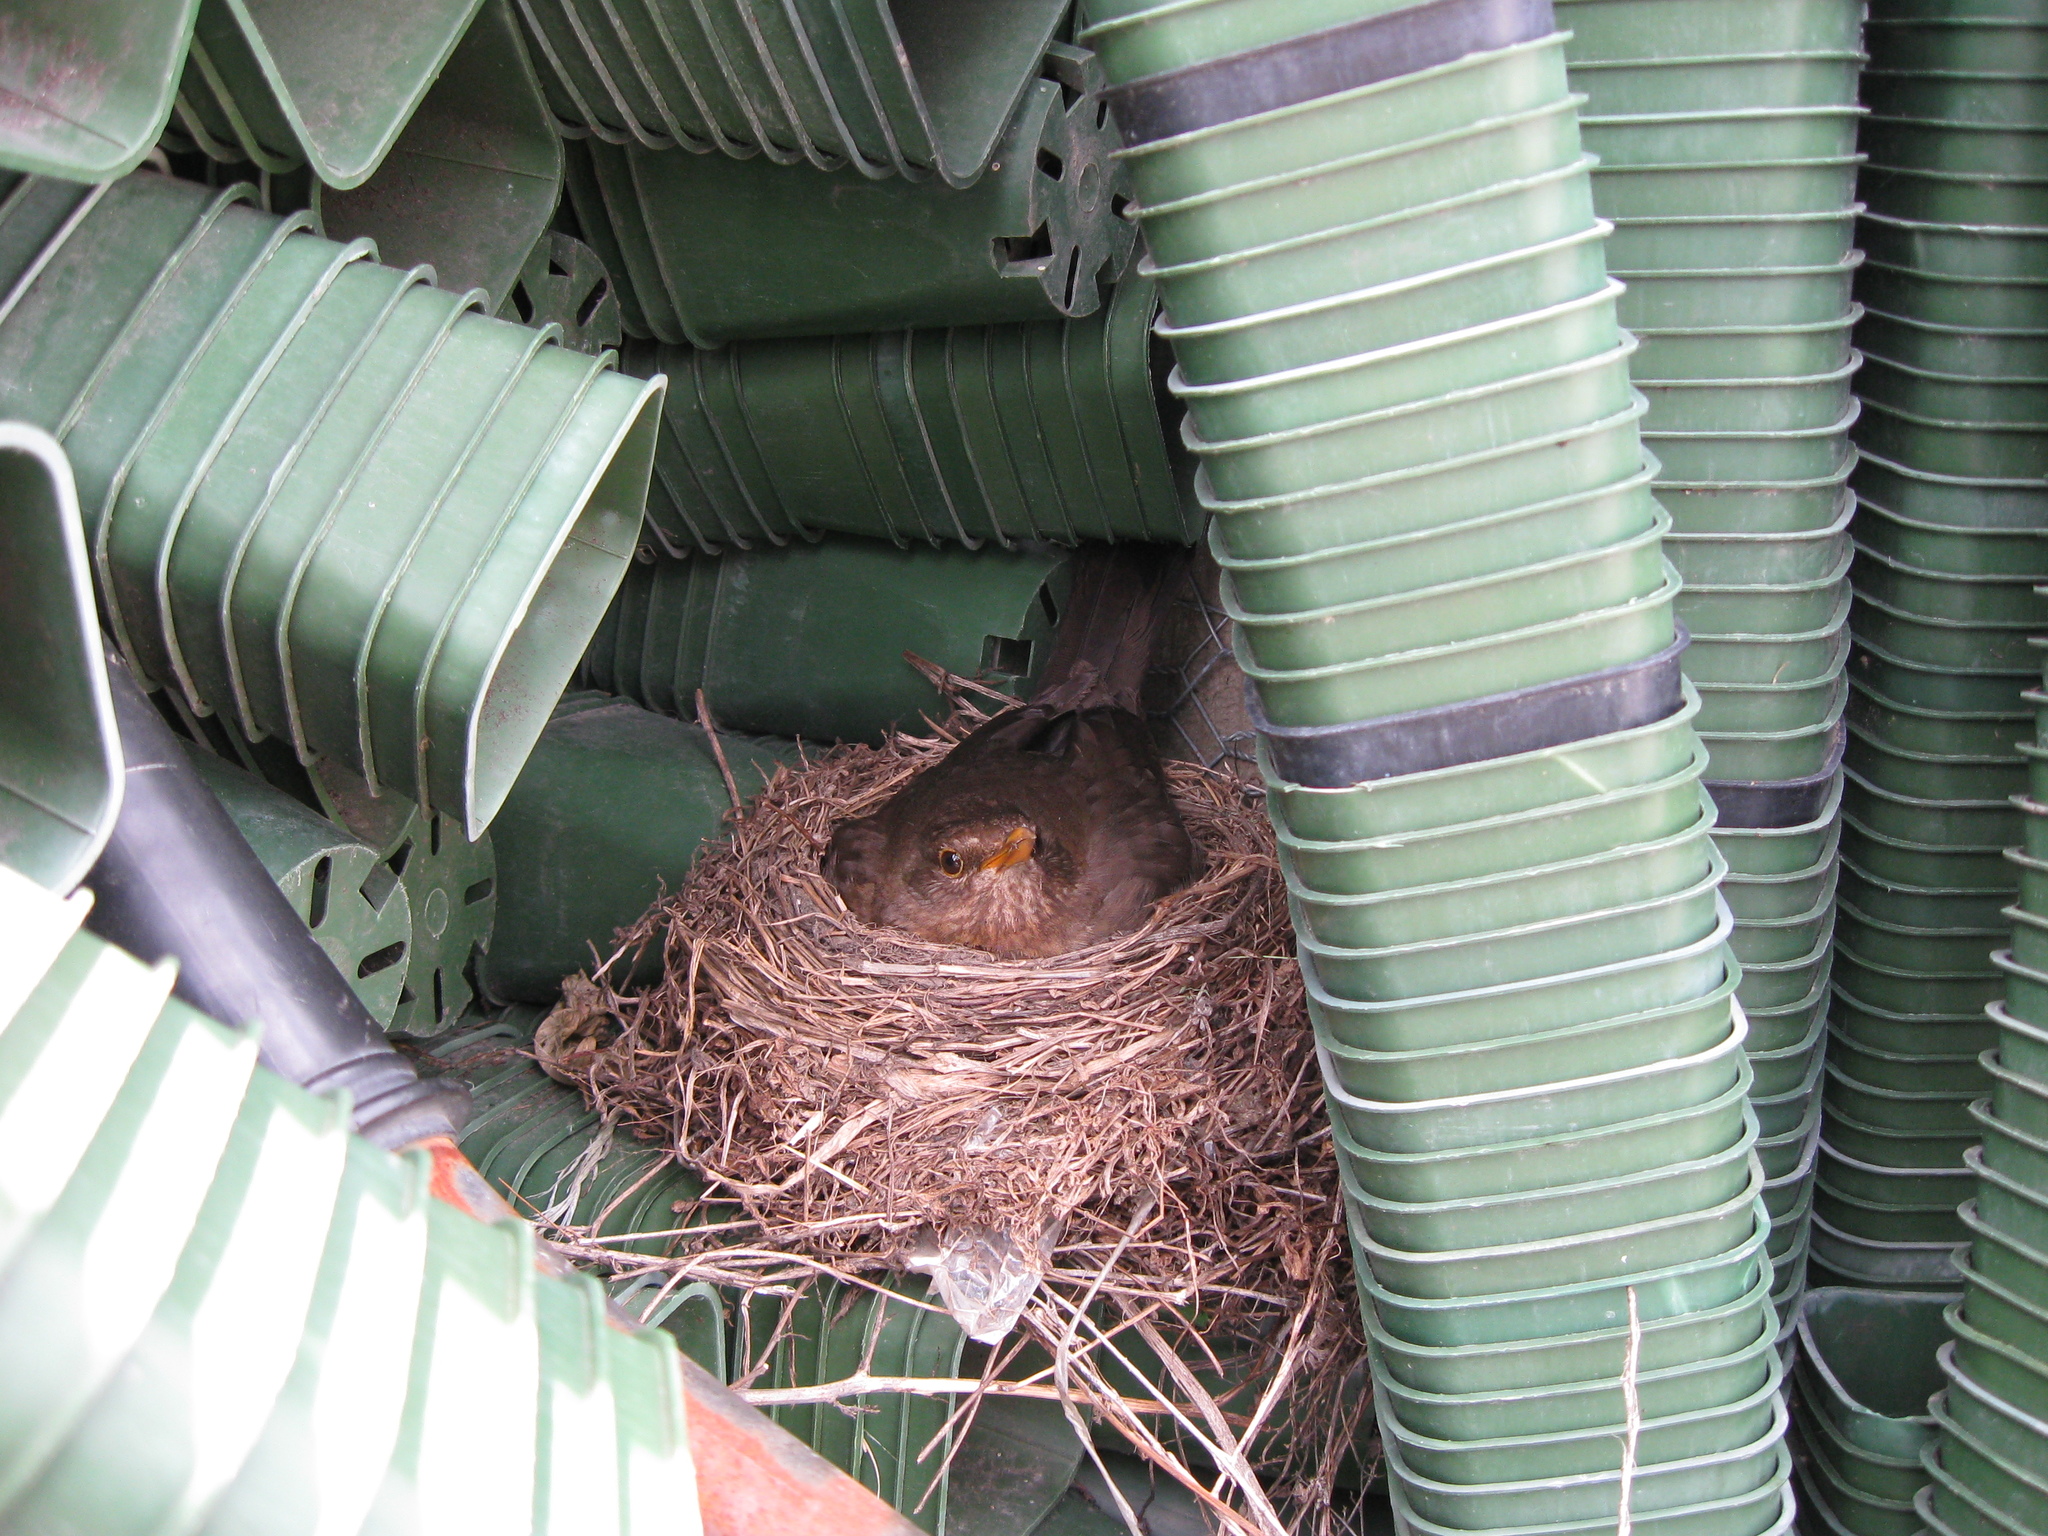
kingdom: Animalia
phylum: Chordata
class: Aves
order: Passeriformes
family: Turdidae
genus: Turdus
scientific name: Turdus merula
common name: Common blackbird
